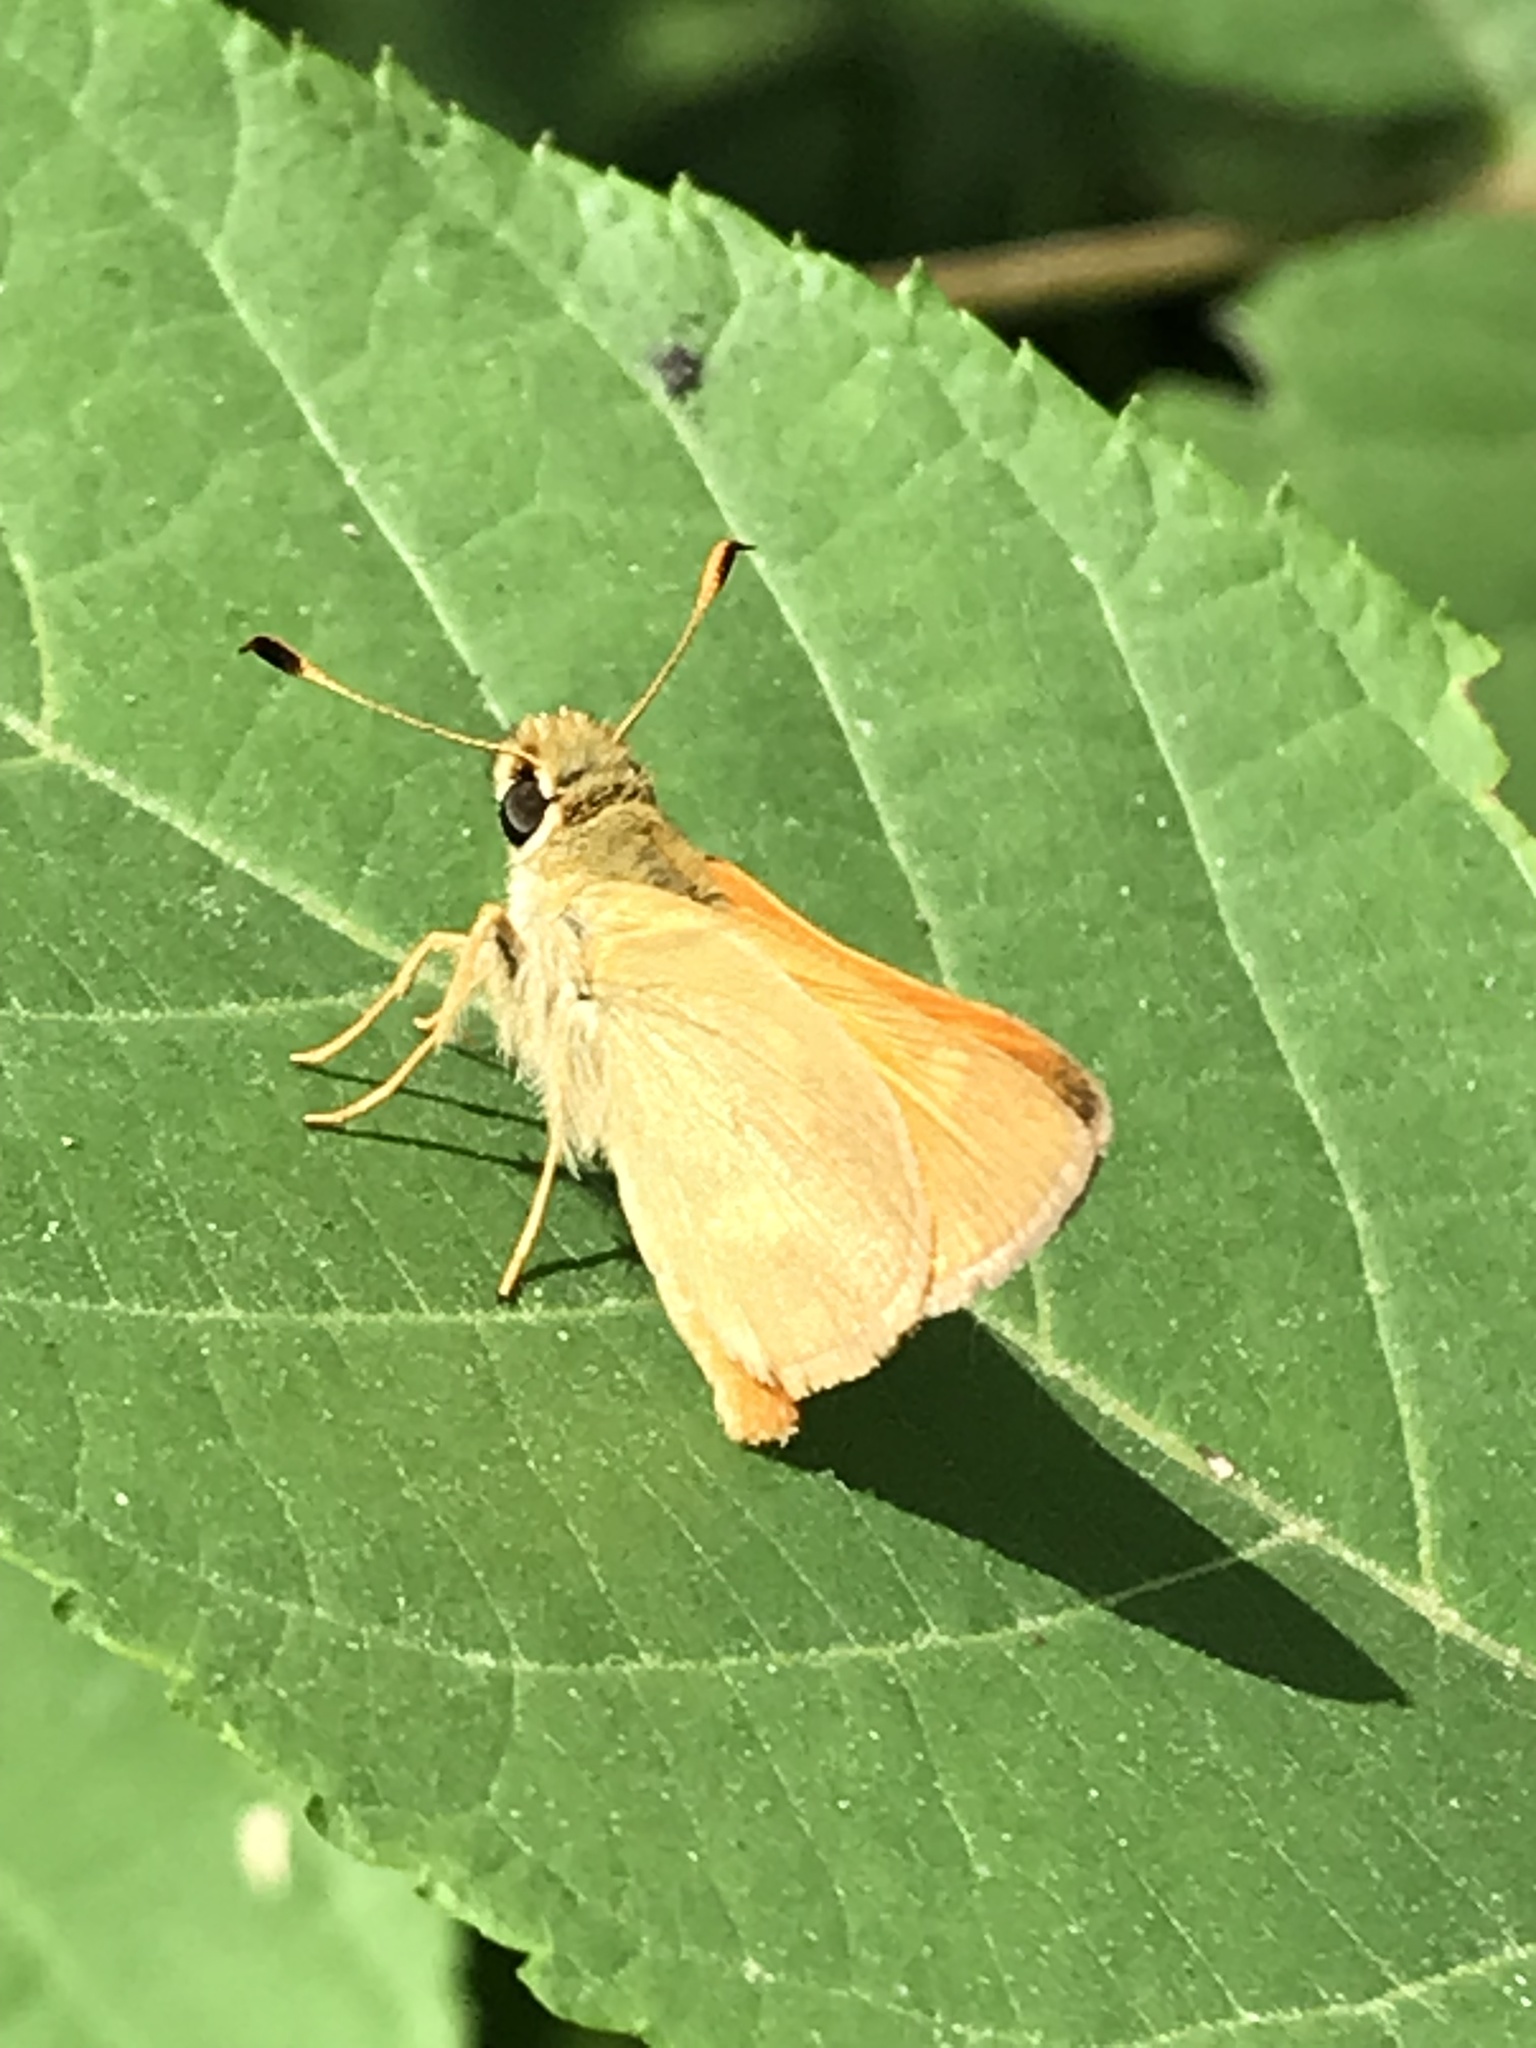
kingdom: Animalia
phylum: Arthropoda
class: Insecta
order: Lepidoptera
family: Hesperiidae
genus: Ochlodes
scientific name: Ochlodes sylvanoides
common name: Woodland skipper
